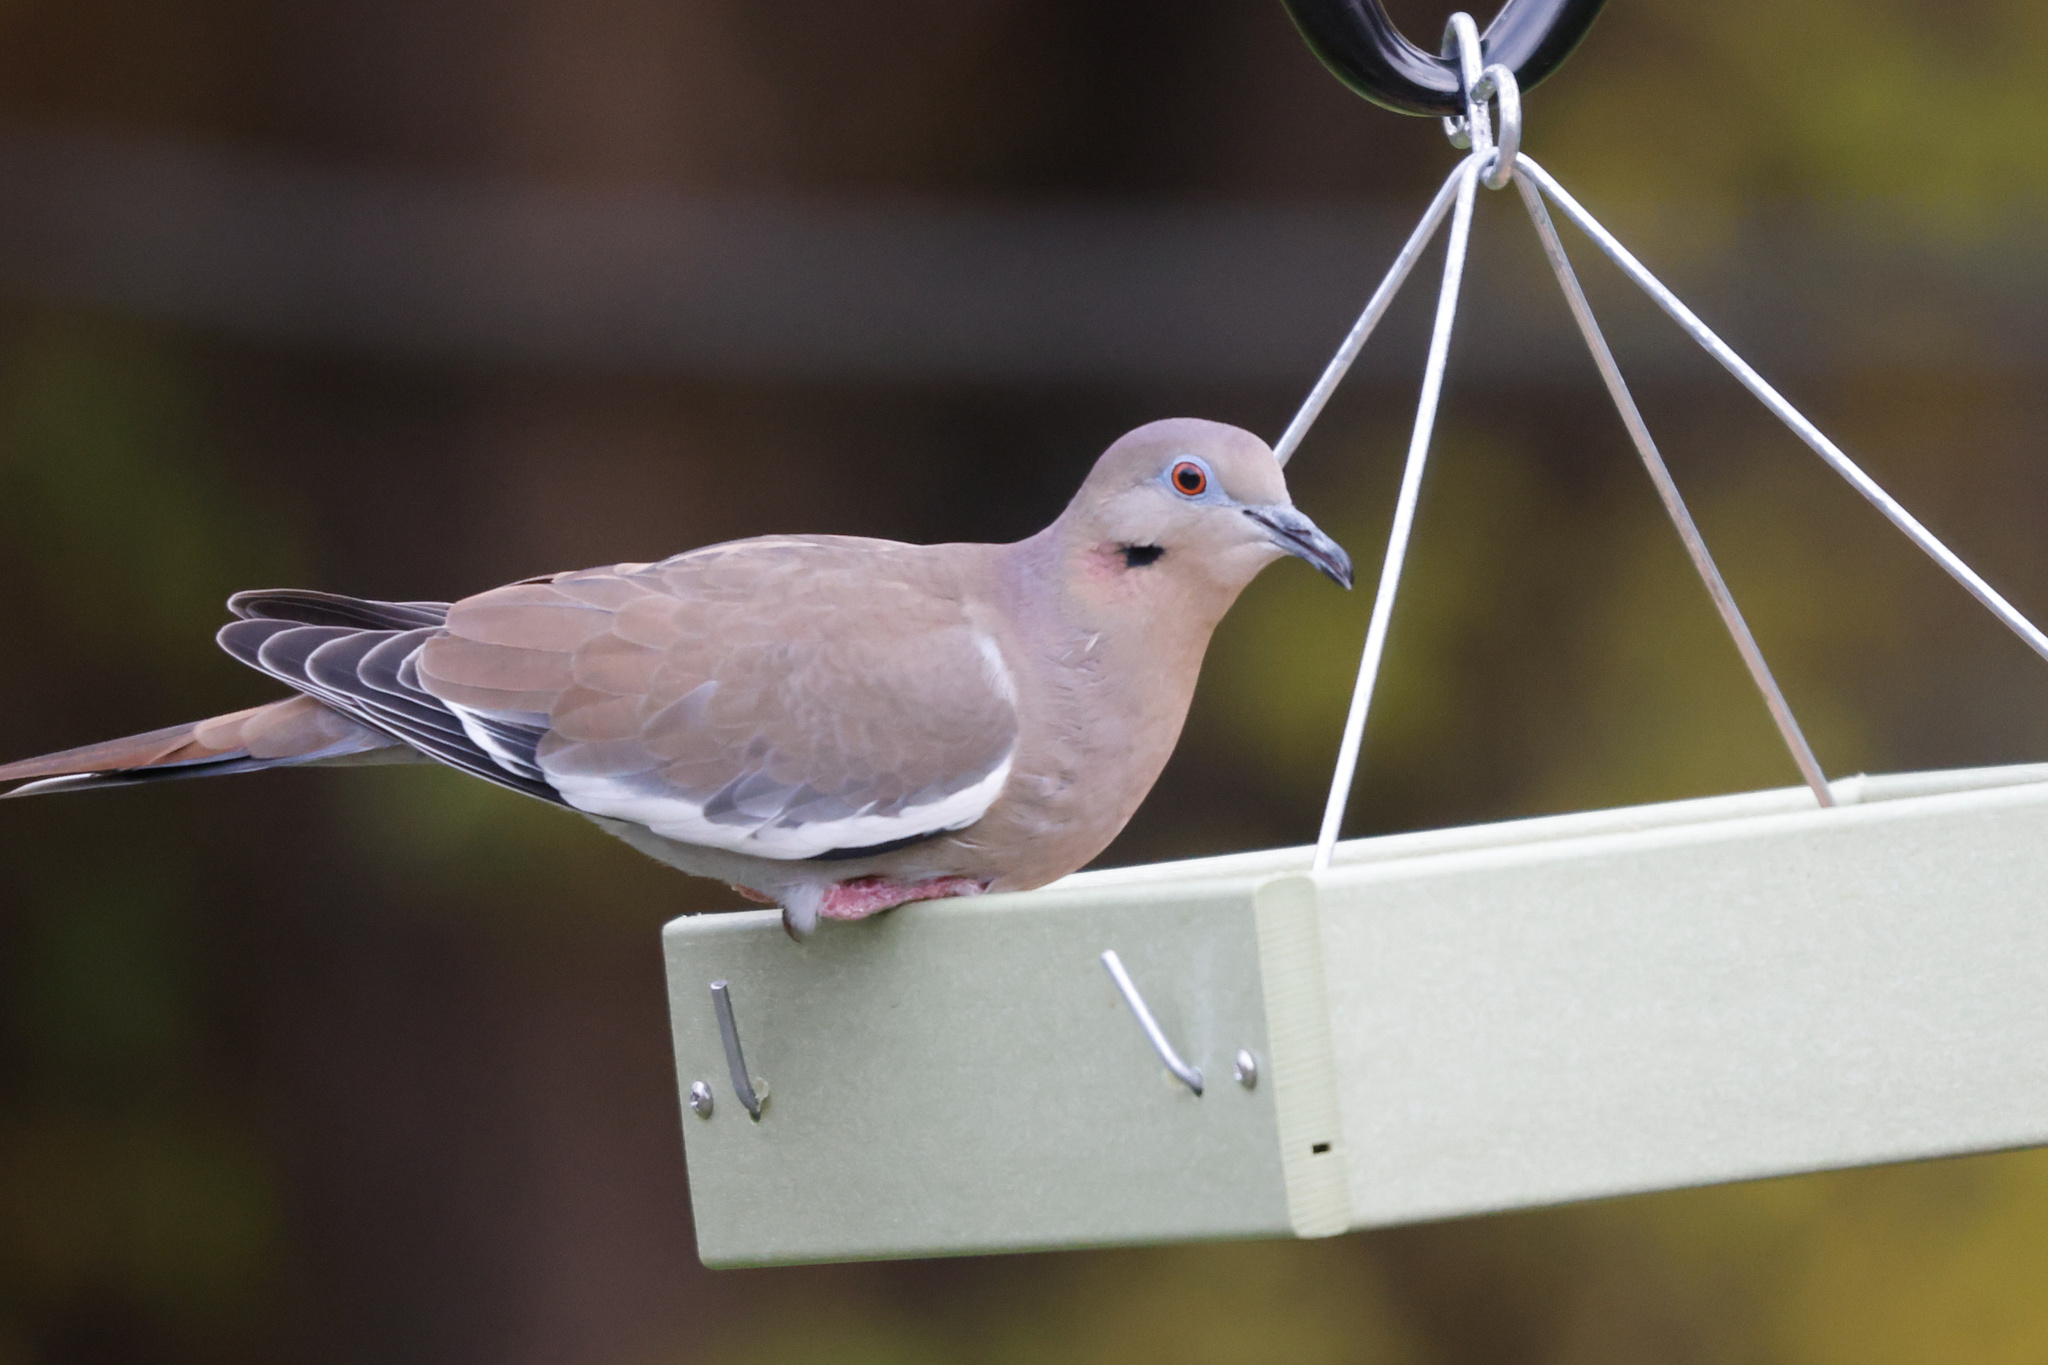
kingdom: Animalia
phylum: Chordata
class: Aves
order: Columbiformes
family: Columbidae
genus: Zenaida
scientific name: Zenaida asiatica
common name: White-winged dove
